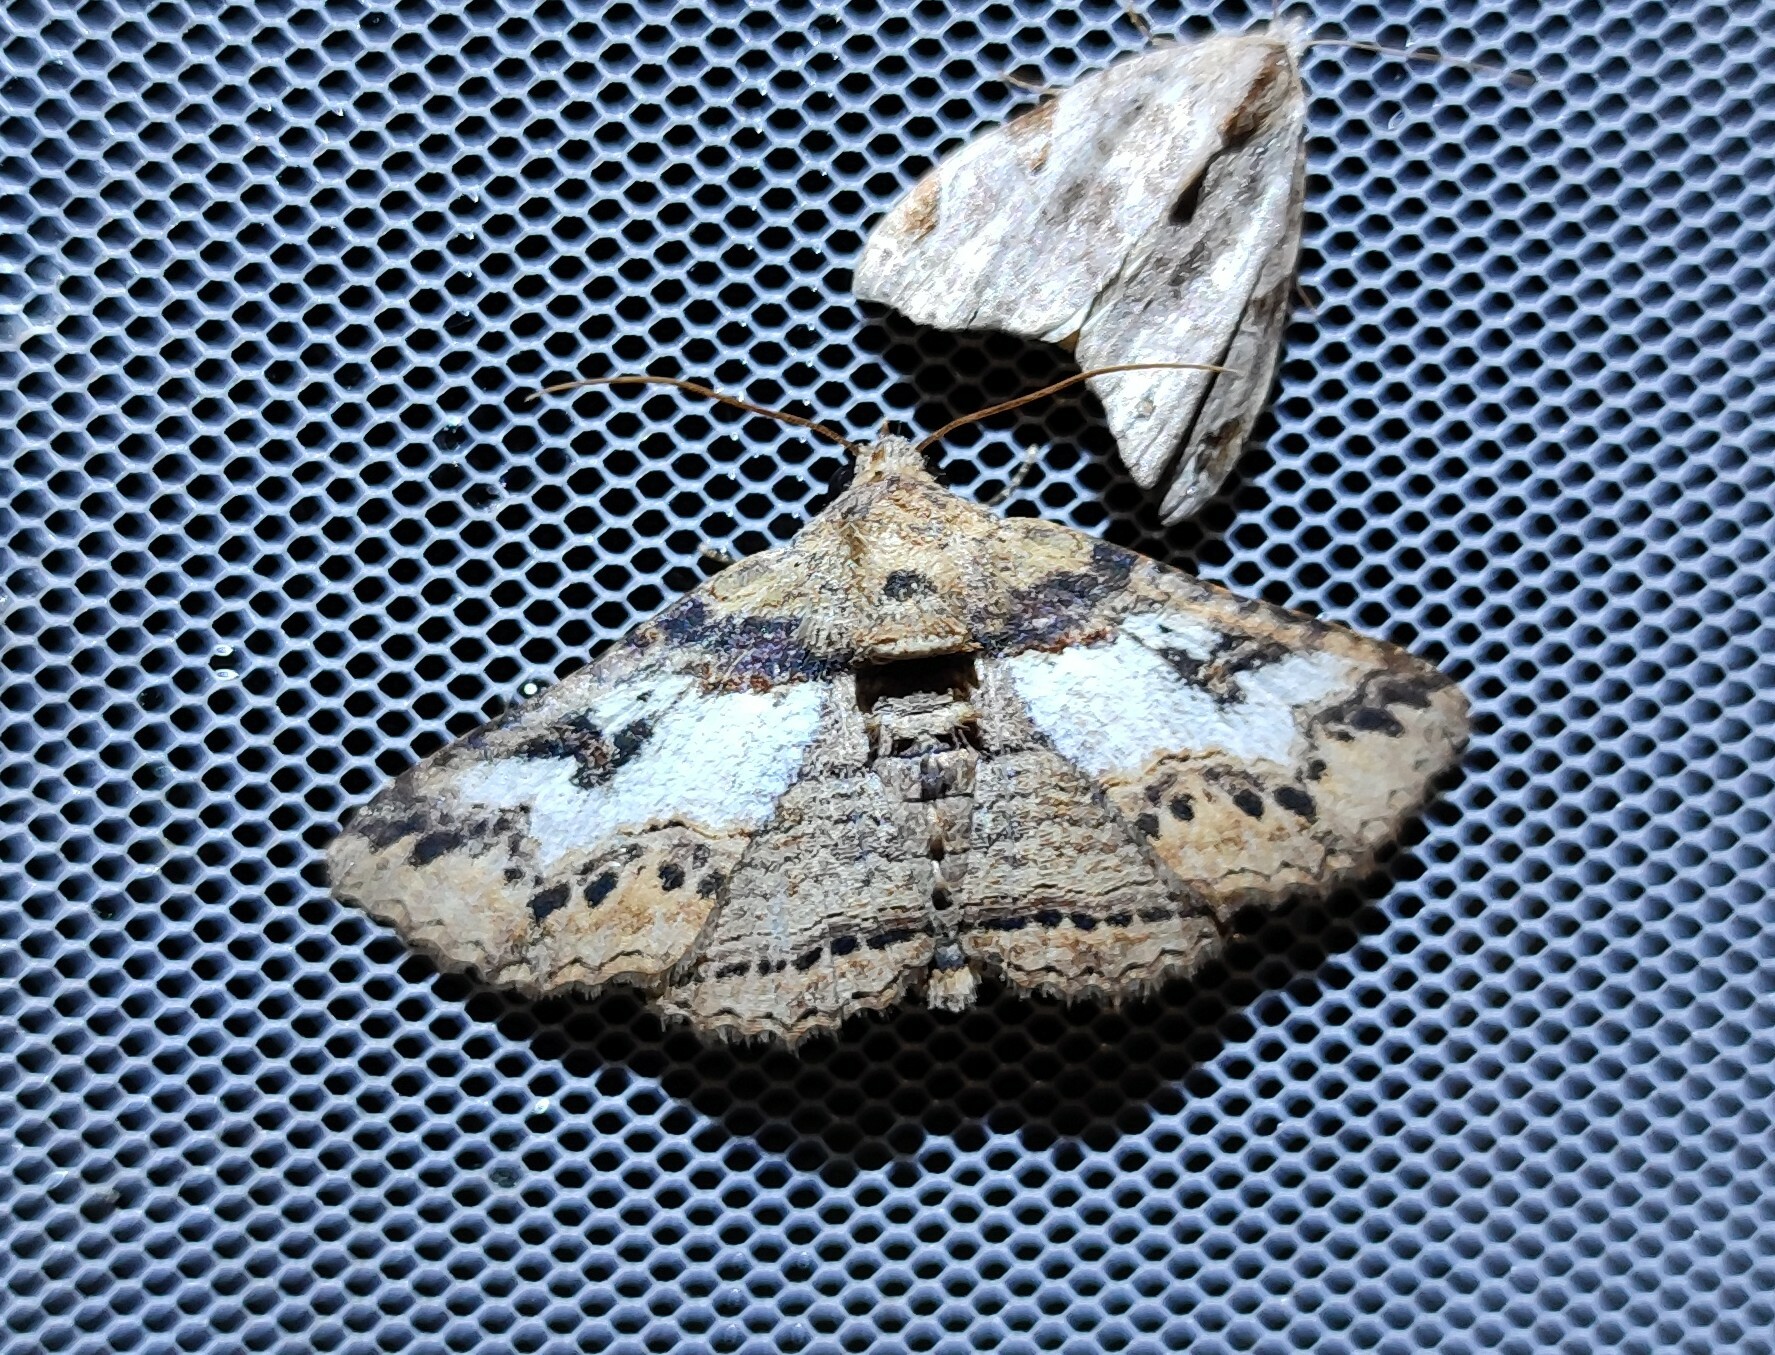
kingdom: Animalia
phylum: Arthropoda
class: Insecta
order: Lepidoptera
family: Erebidae
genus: Pericyma
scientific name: Pericyma mendax
